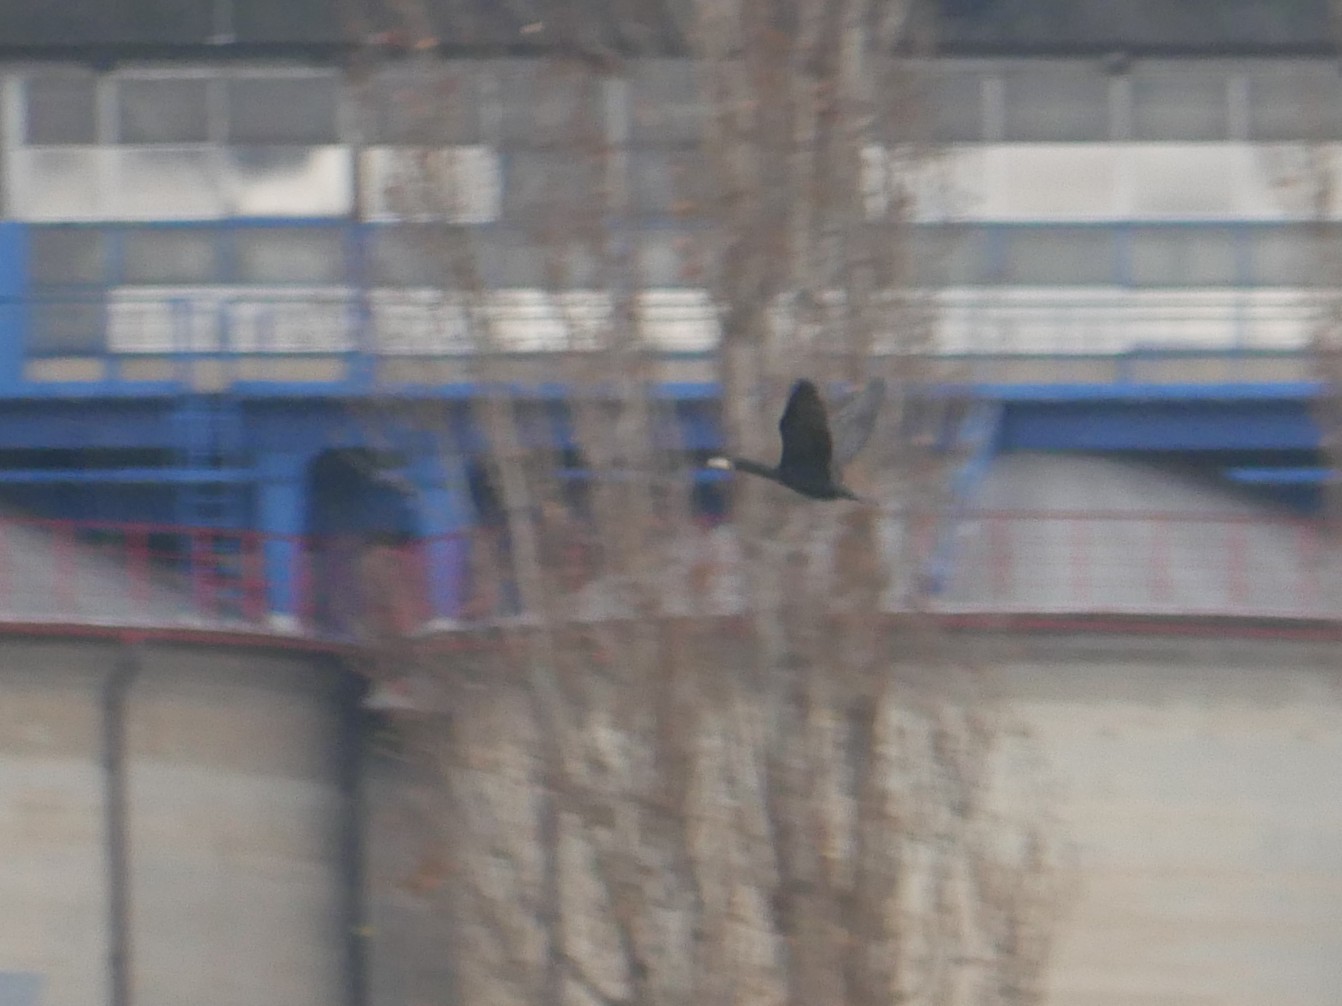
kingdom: Animalia
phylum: Chordata
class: Aves
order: Suliformes
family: Phalacrocoracidae
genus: Phalacrocorax
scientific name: Phalacrocorax carbo
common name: Great cormorant
